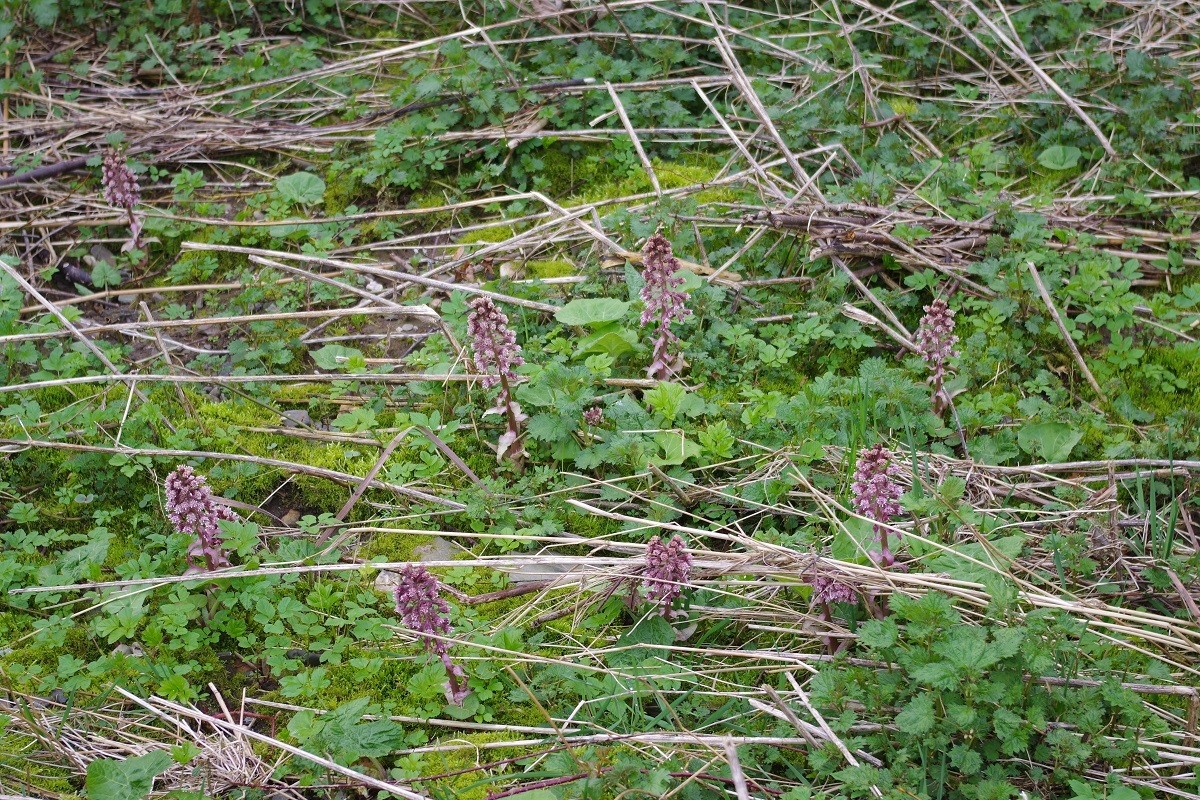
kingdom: Plantae
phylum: Tracheophyta
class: Magnoliopsida
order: Asterales
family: Asteraceae
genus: Petasites
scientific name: Petasites hybridus
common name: Butterbur
